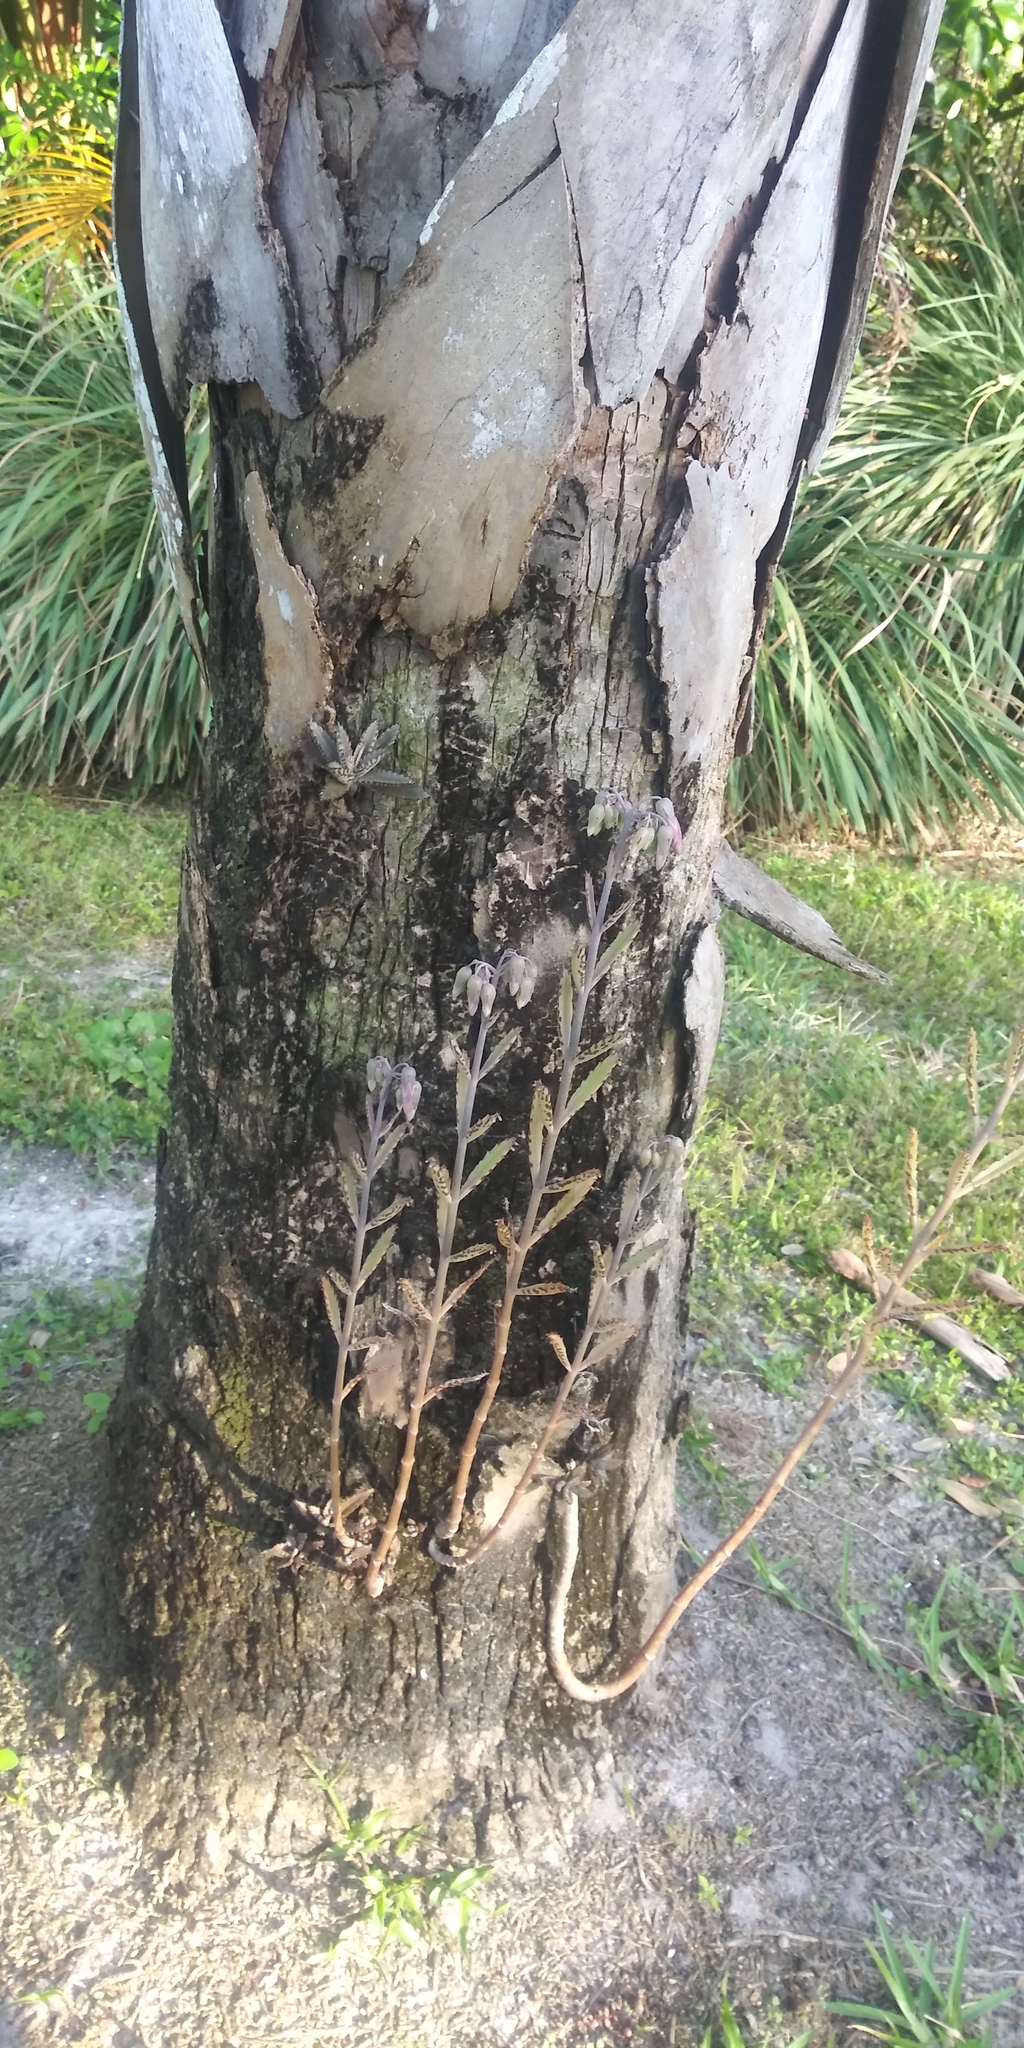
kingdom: Plantae
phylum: Tracheophyta
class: Magnoliopsida
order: Saxifragales
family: Crassulaceae
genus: Kalanchoe
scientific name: Kalanchoe houghtonii
